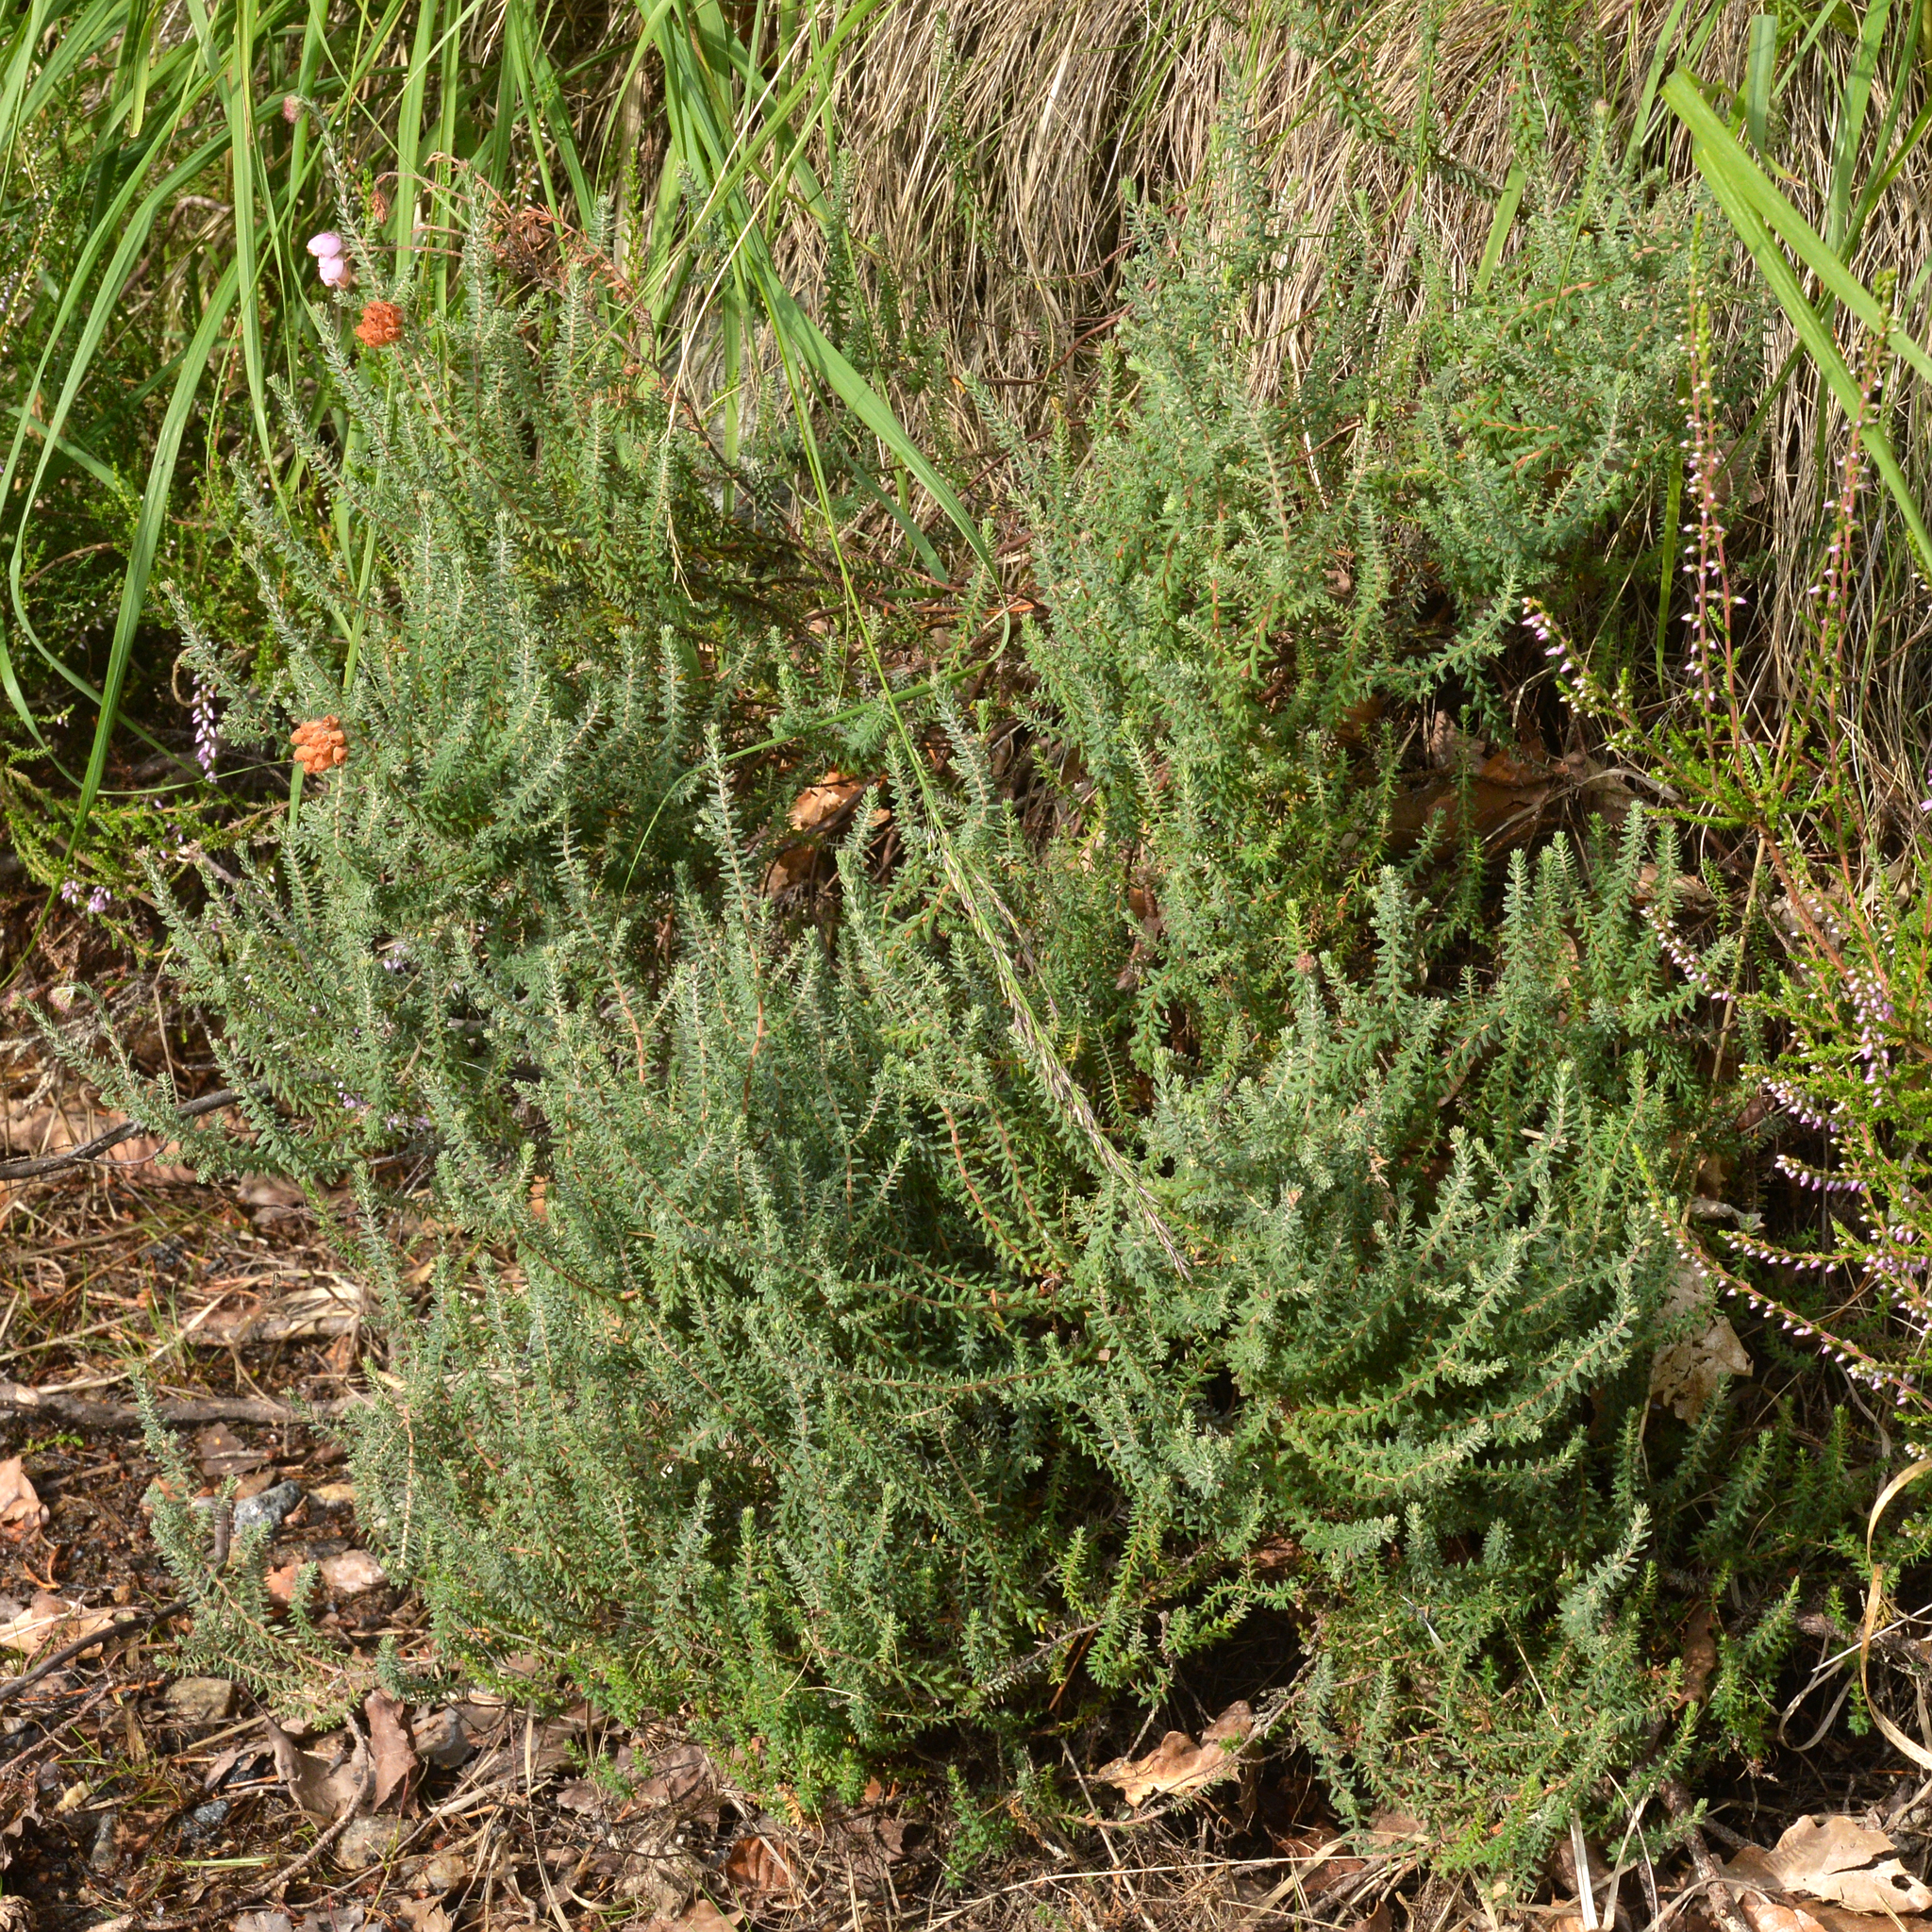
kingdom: Plantae
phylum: Tracheophyta
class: Magnoliopsida
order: Ericales
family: Ericaceae
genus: Erica
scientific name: Erica tetralix
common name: Cross-leaved heath
